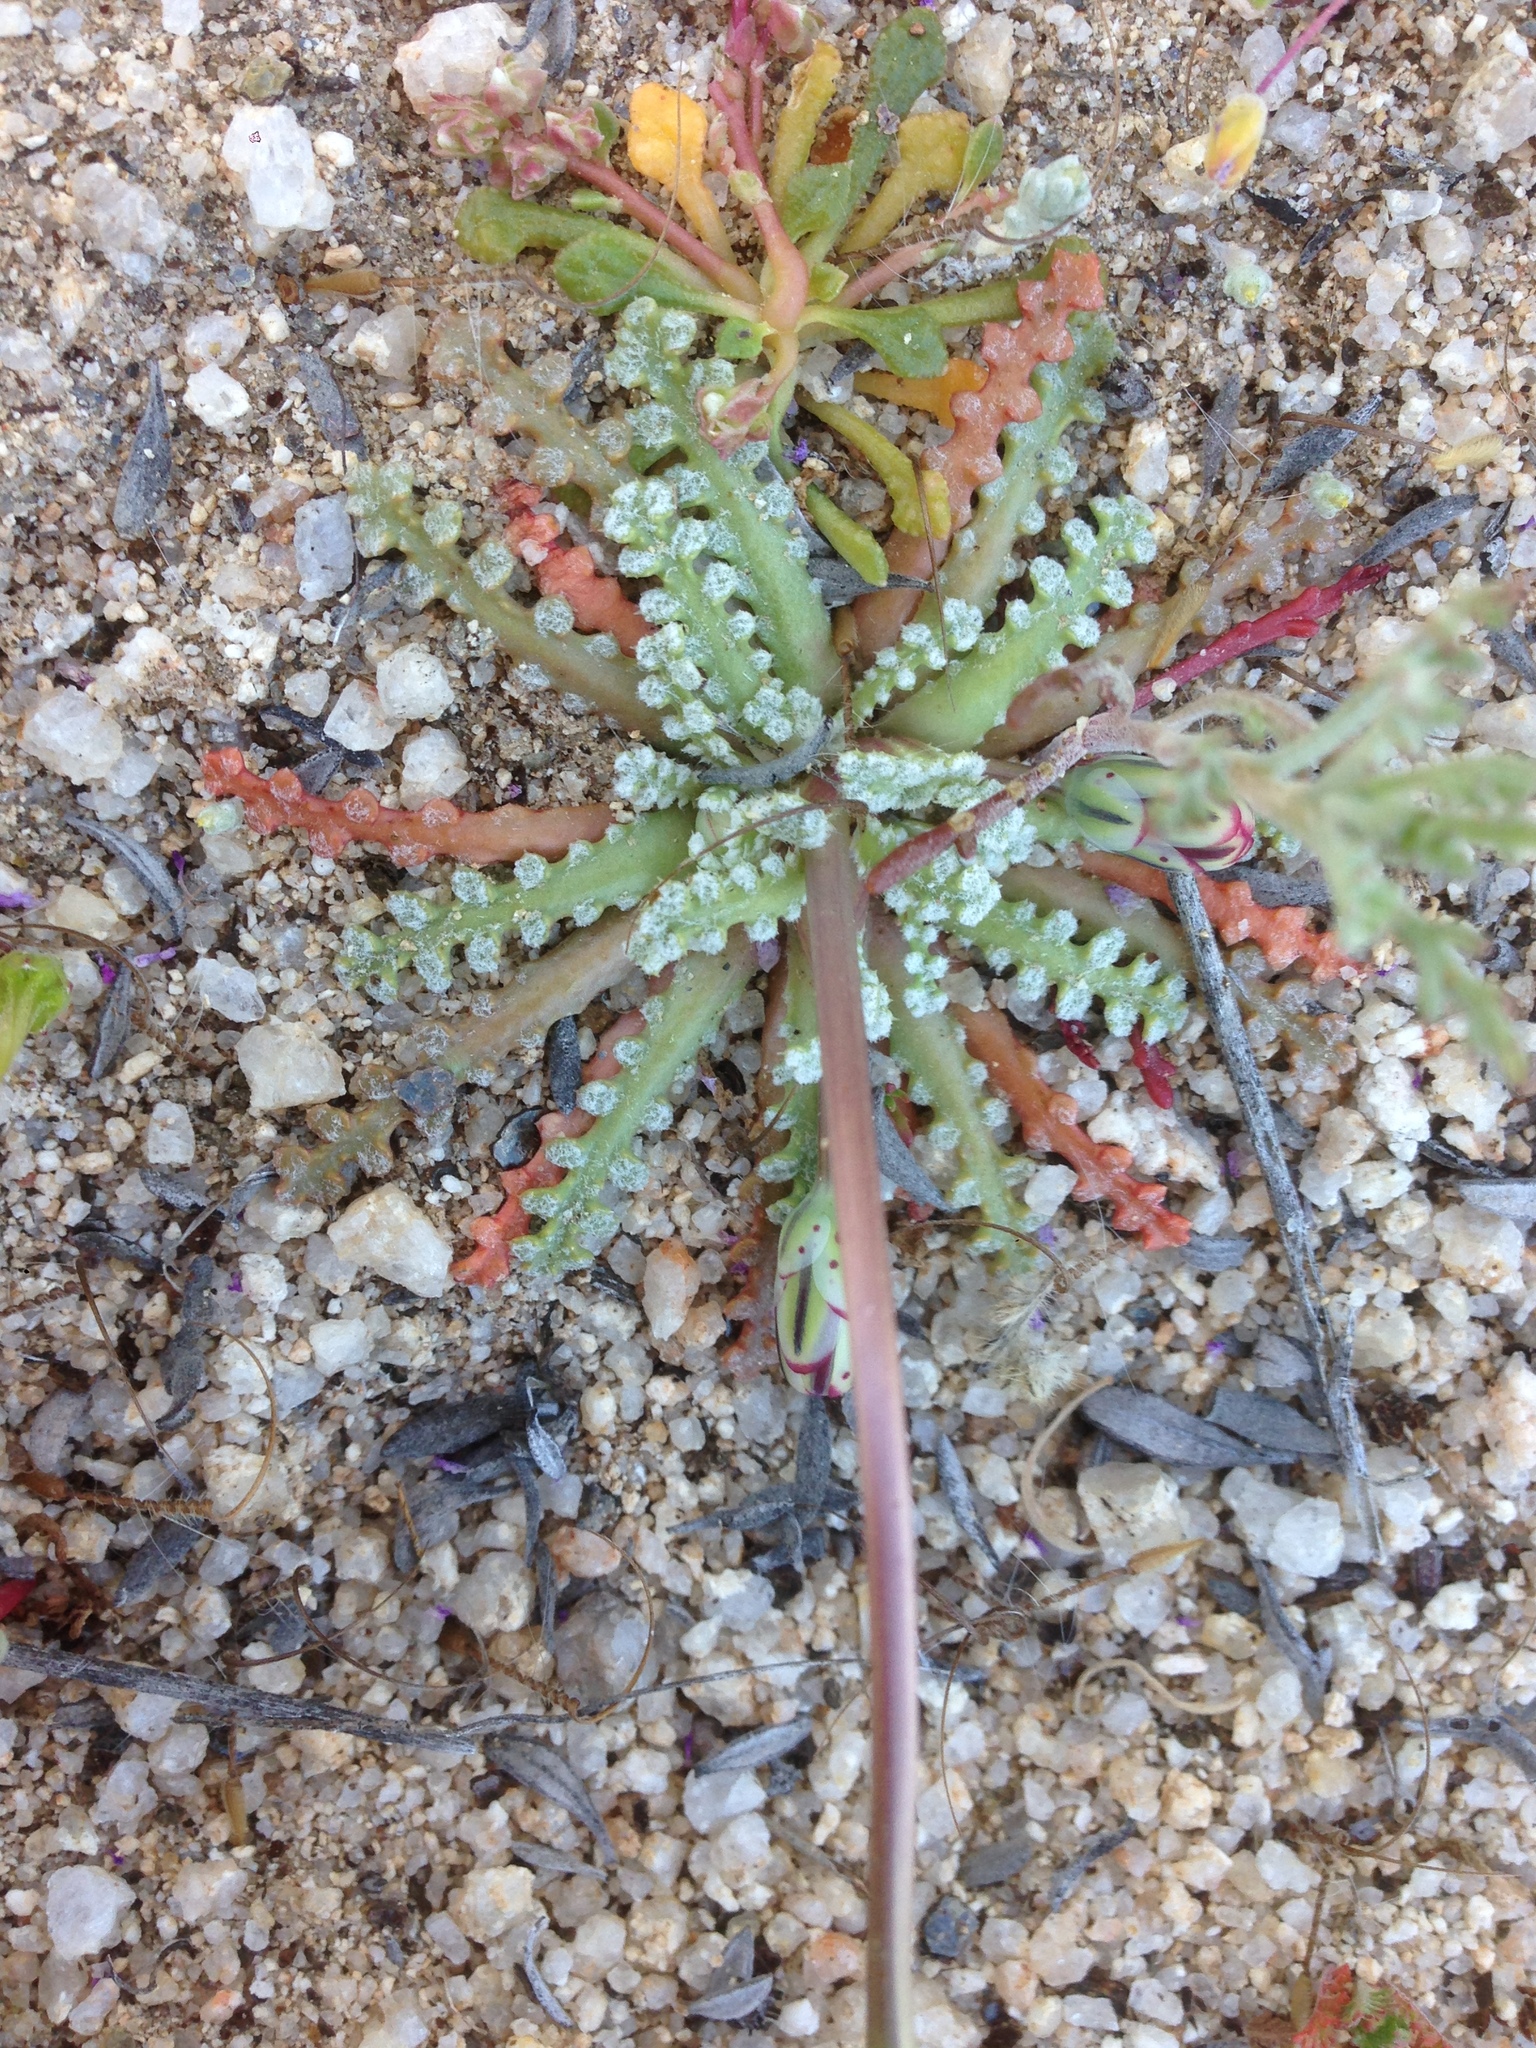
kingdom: Plantae
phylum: Tracheophyta
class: Magnoliopsida
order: Asterales
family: Asteraceae
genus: Anisocoma
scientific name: Anisocoma acaulis
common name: Scalebud
